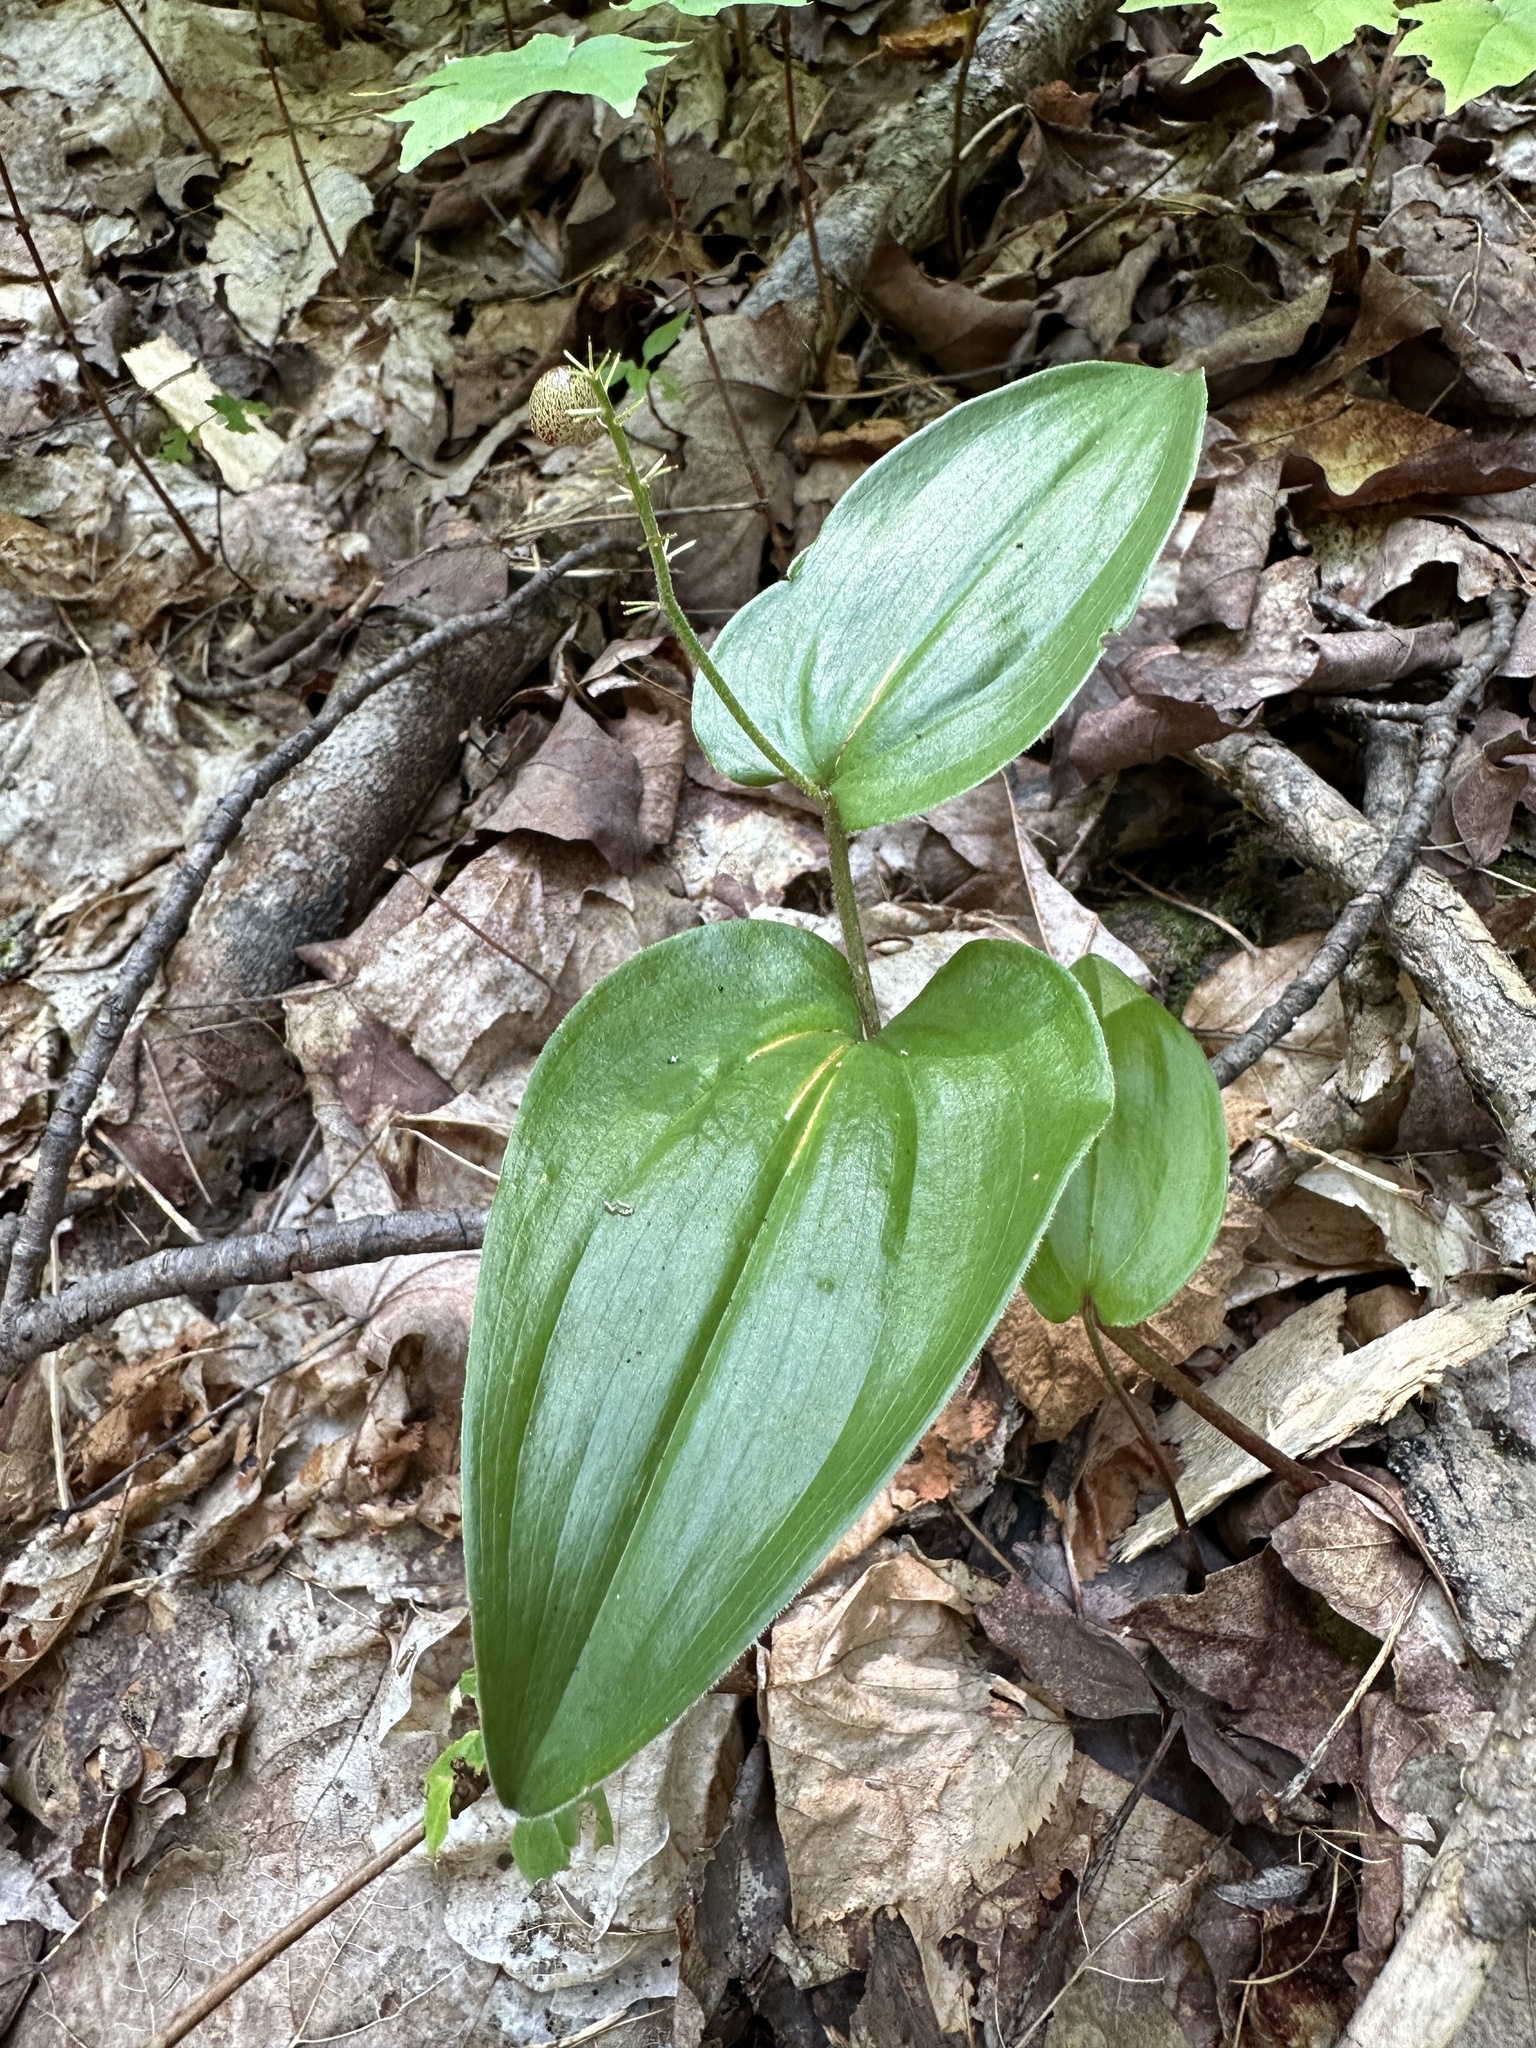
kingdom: Plantae
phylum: Tracheophyta
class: Liliopsida
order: Asparagales
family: Asparagaceae
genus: Maianthemum
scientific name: Maianthemum canadense
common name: False lily-of-the-valley
